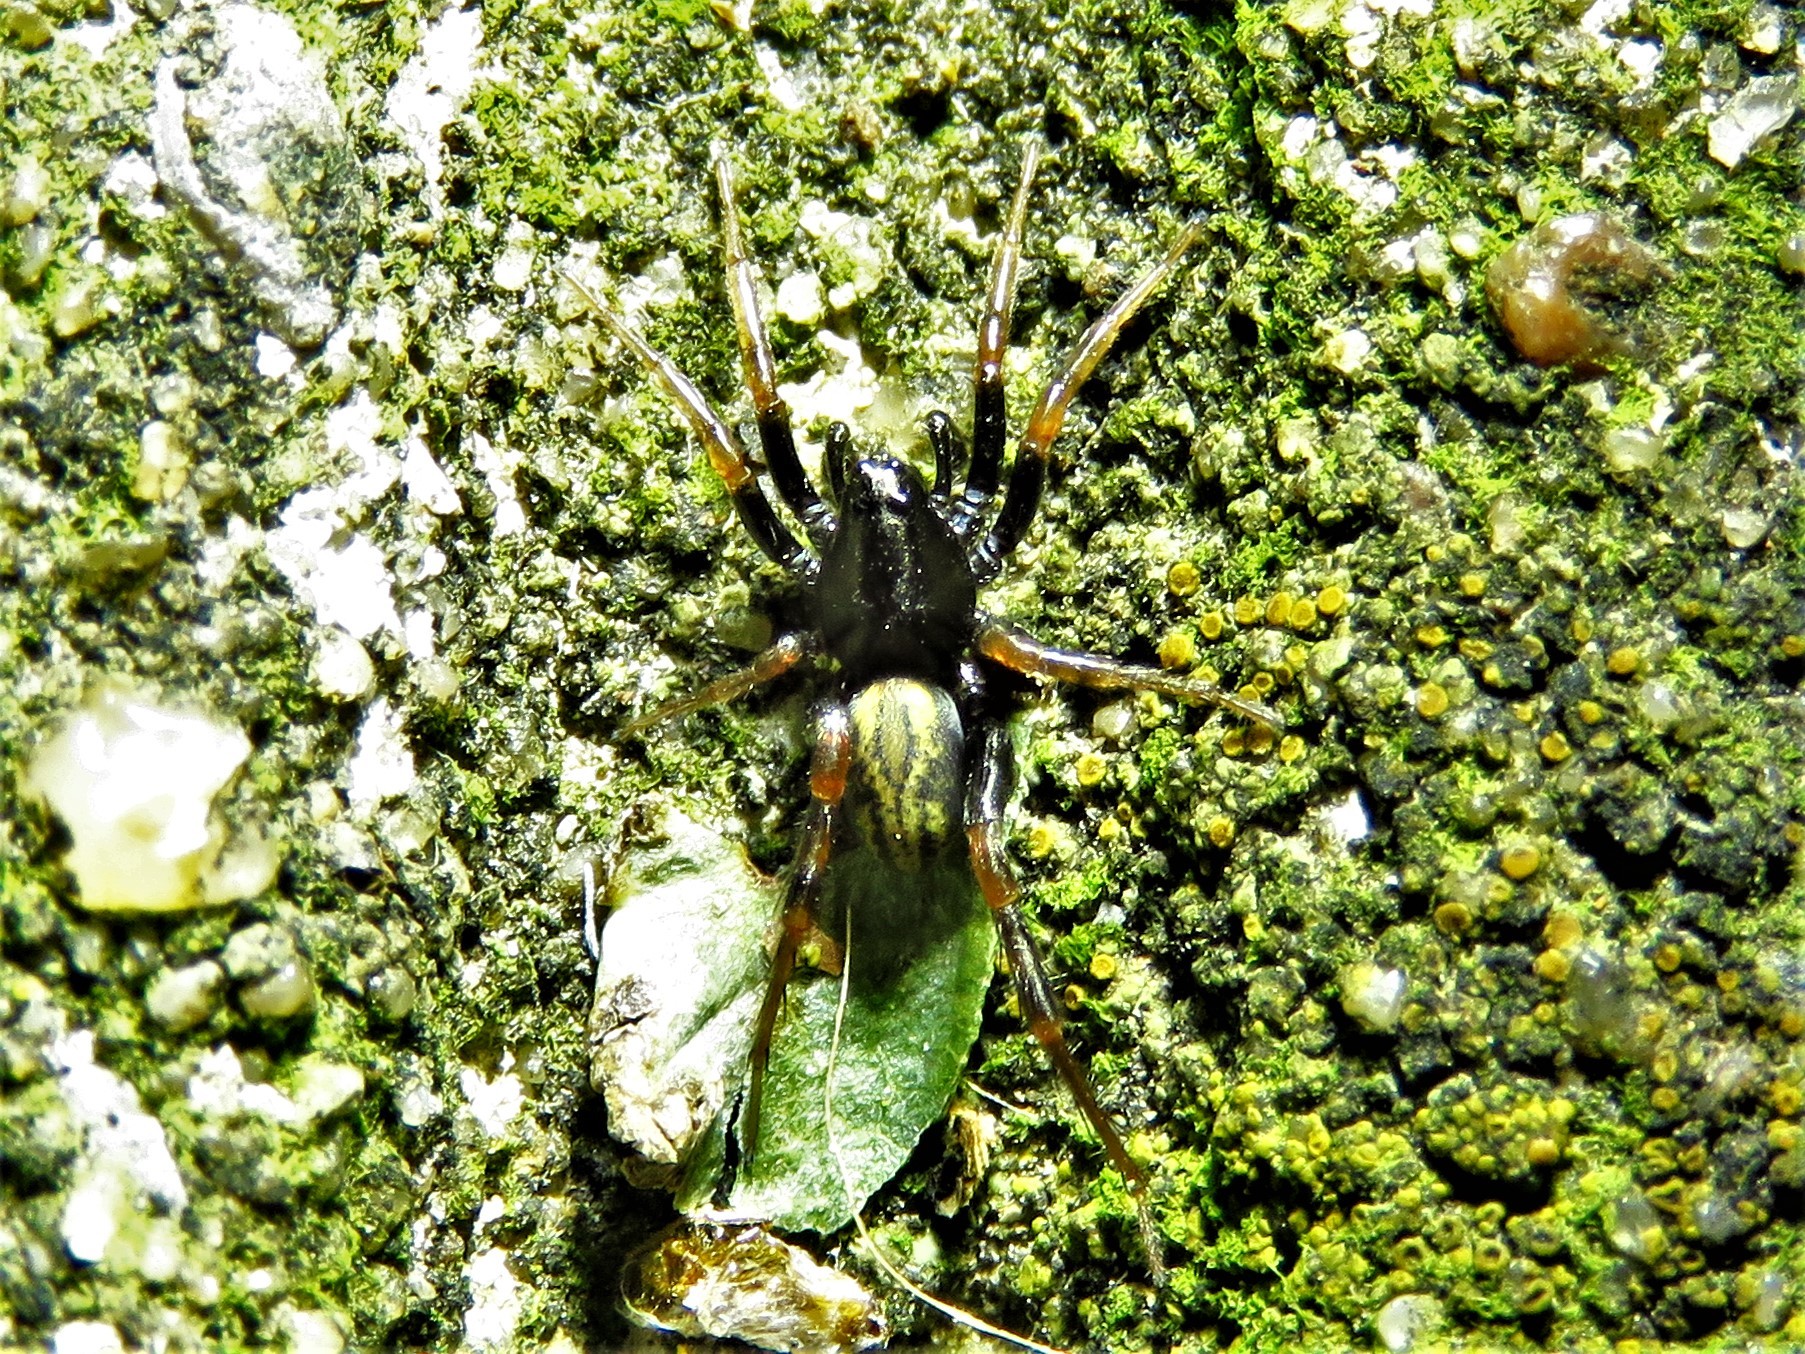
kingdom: Animalia
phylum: Arthropoda
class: Arachnida
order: Araneae
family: Lycosidae
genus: Allocosa
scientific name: Allocosa funerea
